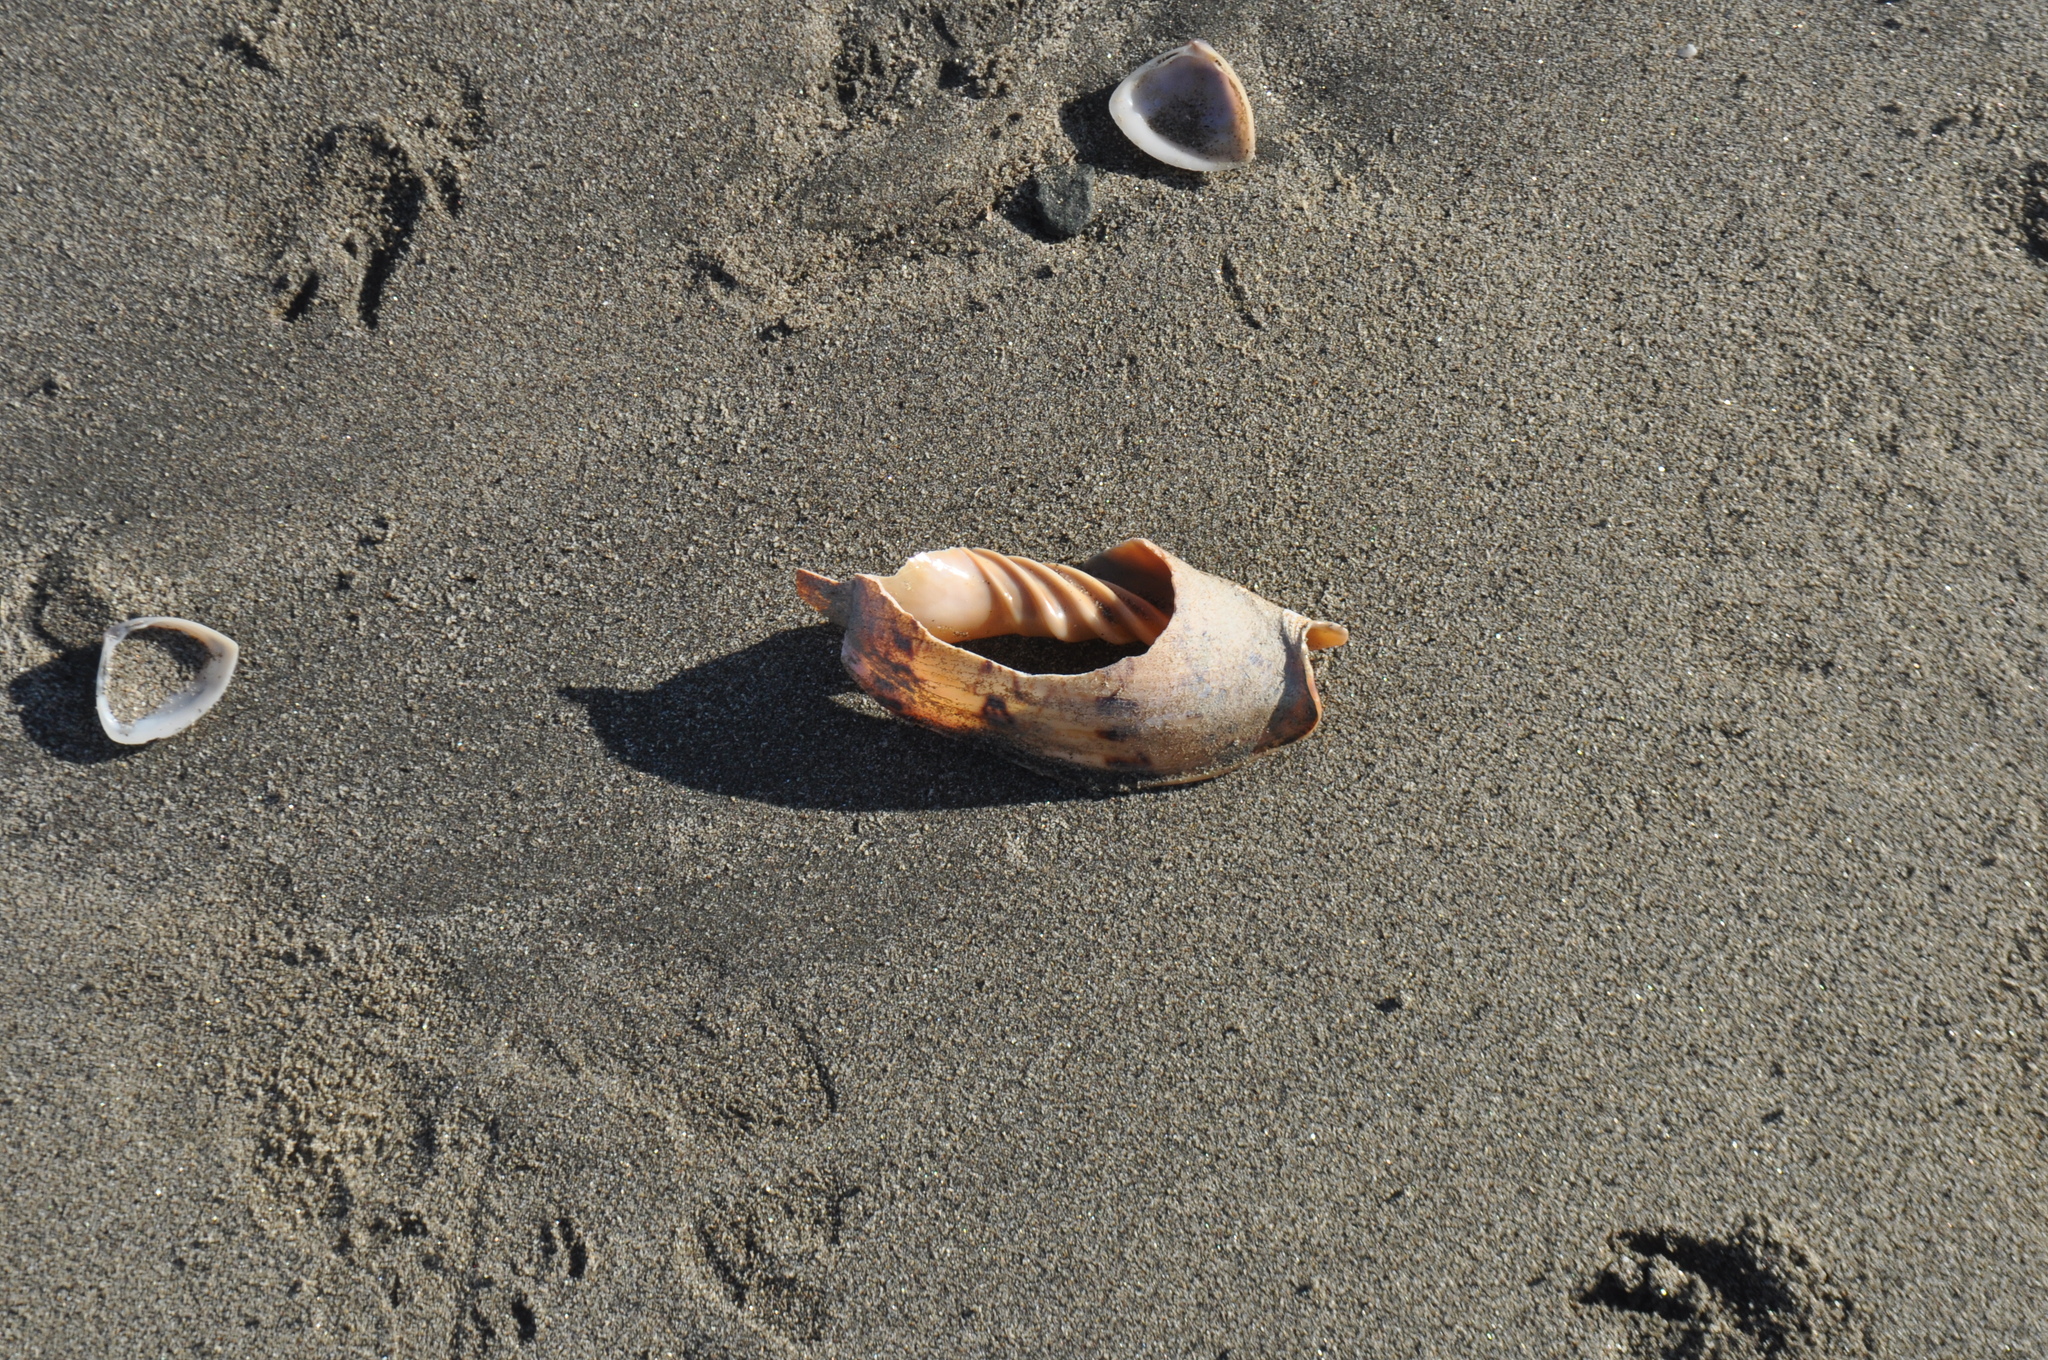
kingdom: Animalia
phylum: Mollusca
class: Gastropoda
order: Neogastropoda
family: Volutidae
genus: Alcithoe
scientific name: Alcithoe arabica
